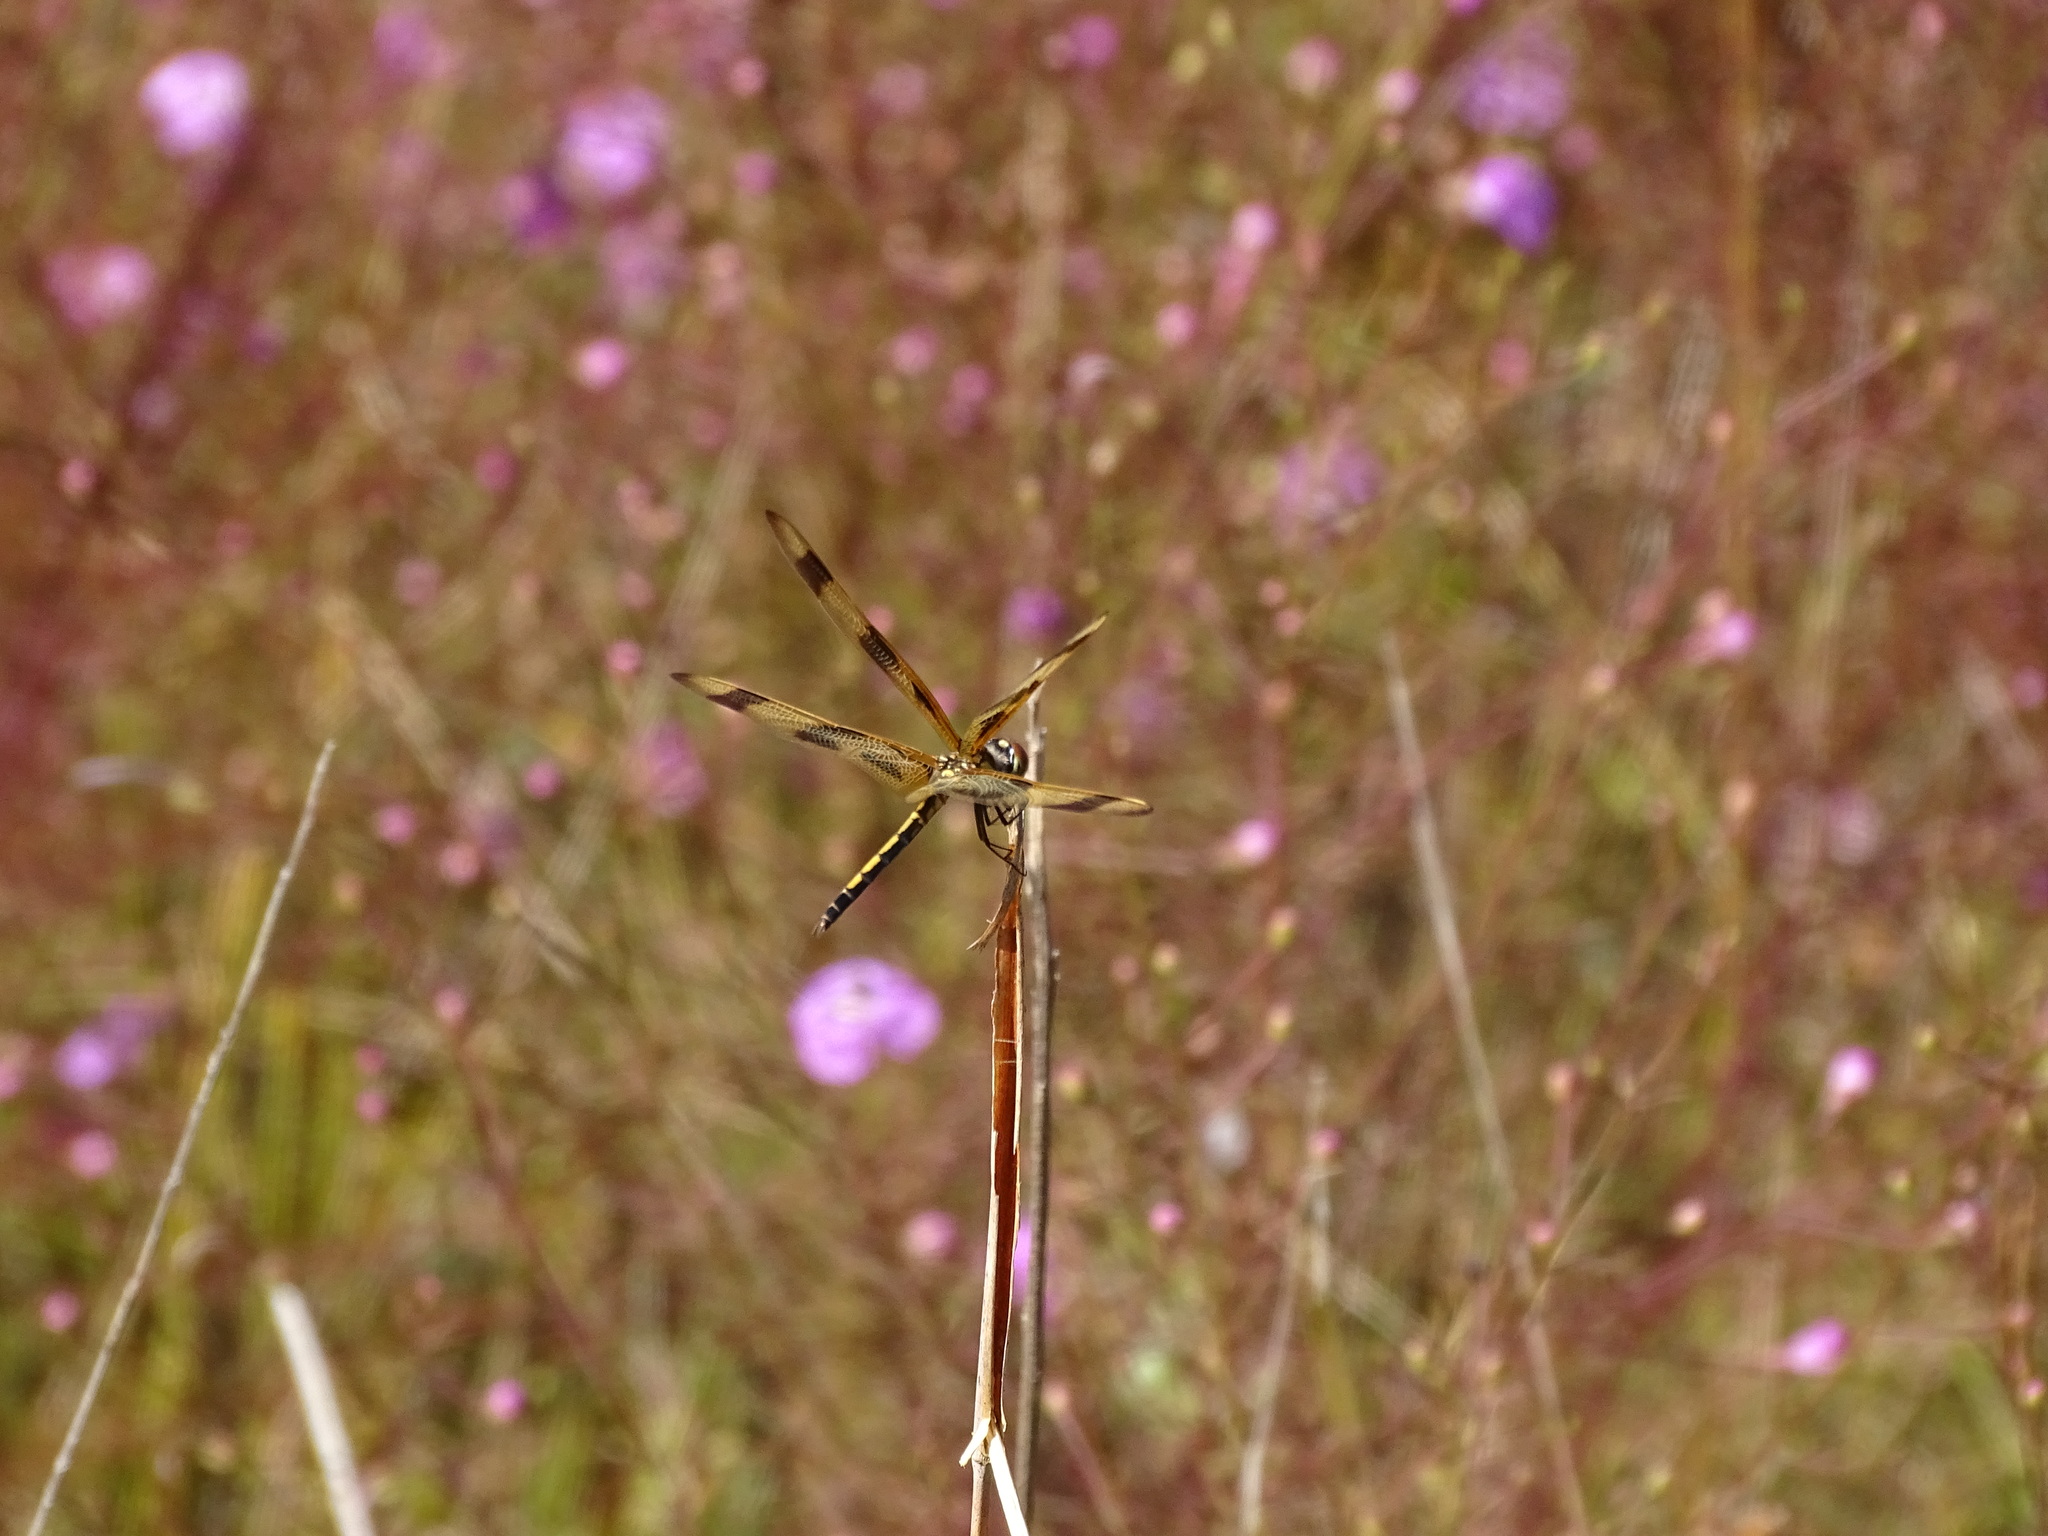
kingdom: Animalia
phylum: Arthropoda
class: Insecta
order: Odonata
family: Libellulidae
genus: Celithemis
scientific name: Celithemis eponina
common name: Halloween pennant
